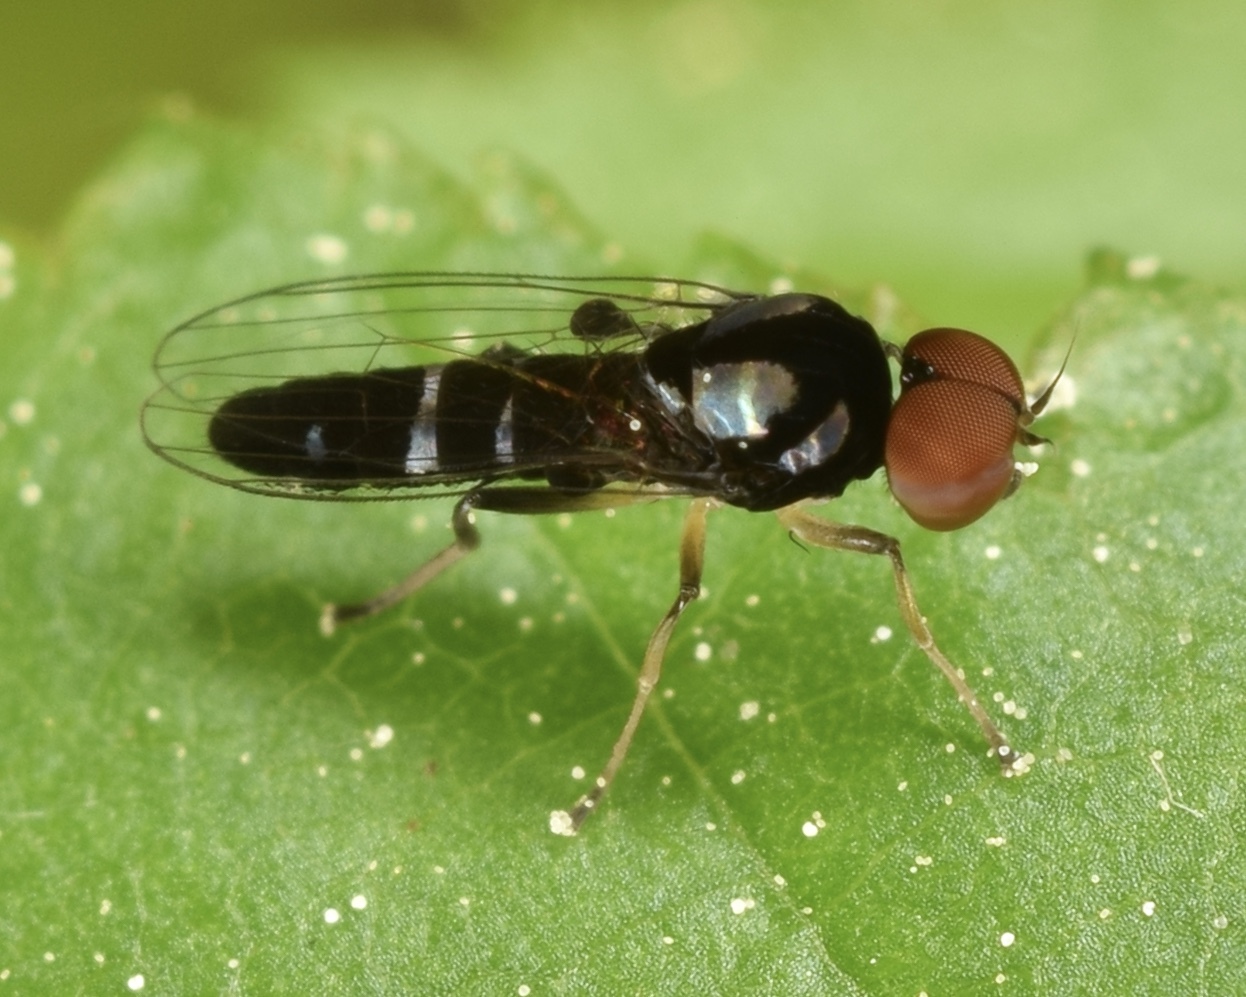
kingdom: Animalia
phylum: Arthropoda
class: Insecta
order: Diptera
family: Platypezidae
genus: Bertamyia
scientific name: Bertamyia notata
